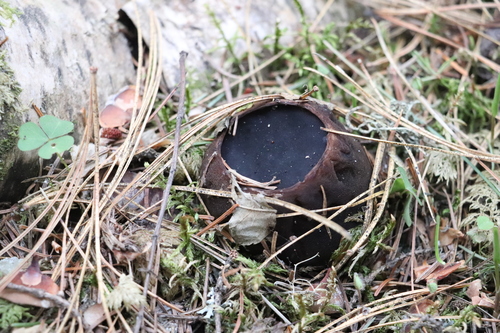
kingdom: Fungi
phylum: Ascomycota
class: Pezizomycetes
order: Pezizales
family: Sarcosomataceae
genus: Sarcosoma
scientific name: Sarcosoma globosum
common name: Charred-pancake cup
